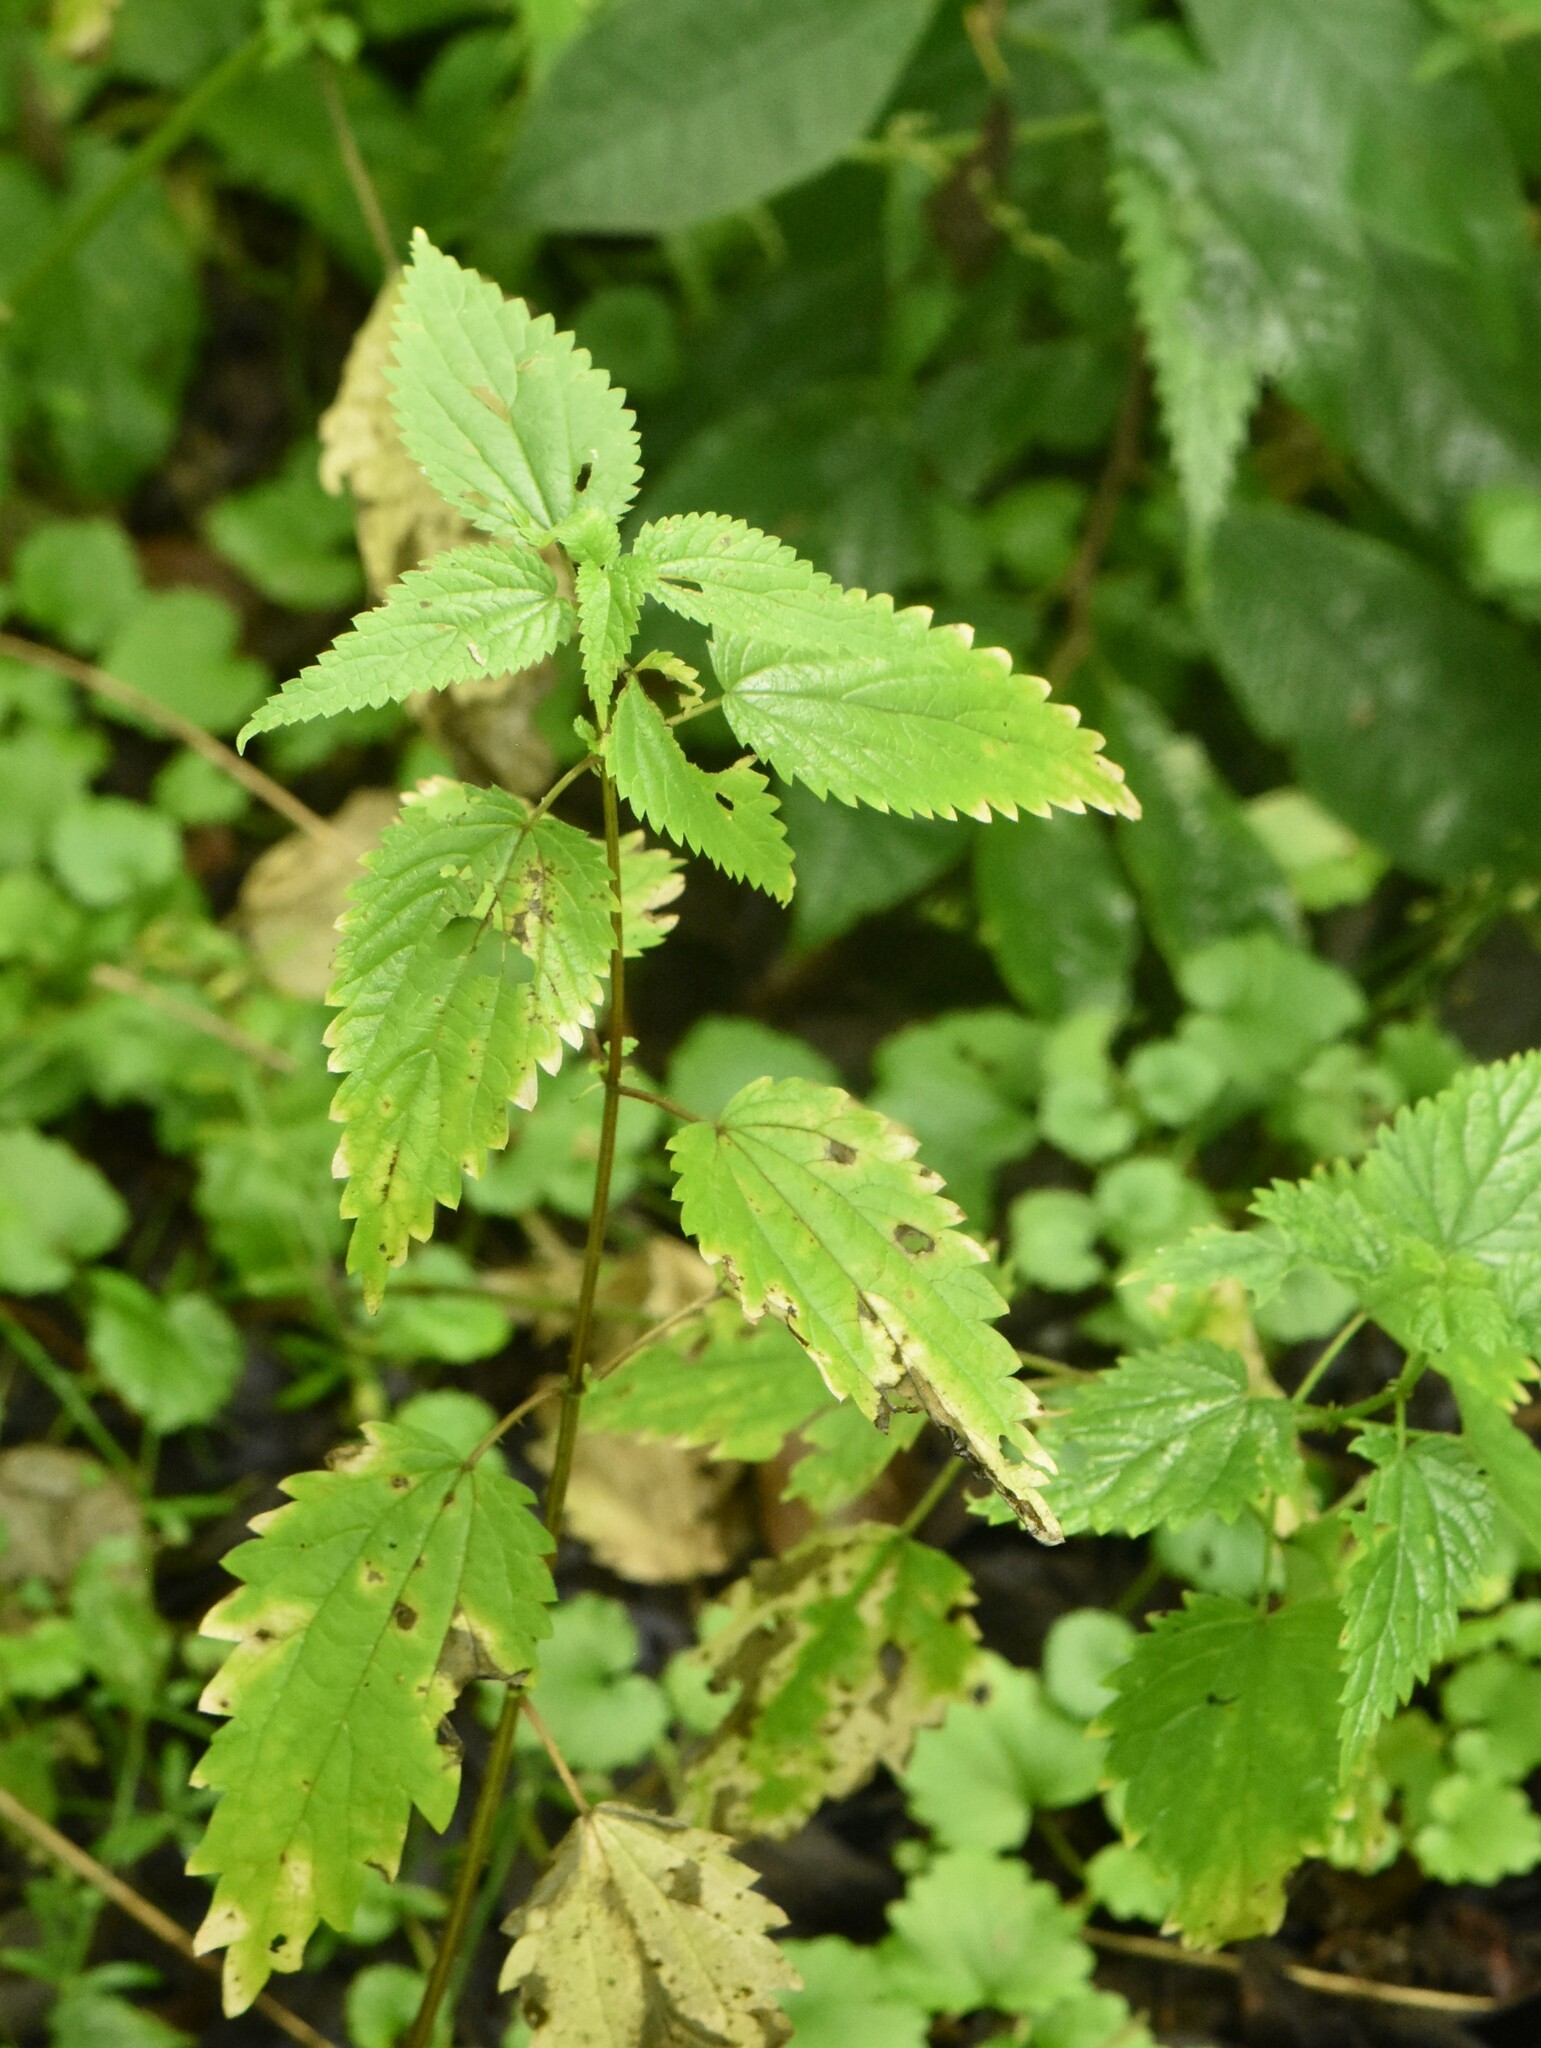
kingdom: Plantae
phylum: Tracheophyta
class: Magnoliopsida
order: Rosales
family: Urticaceae
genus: Urtica
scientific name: Urtica dioica
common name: Common nettle
